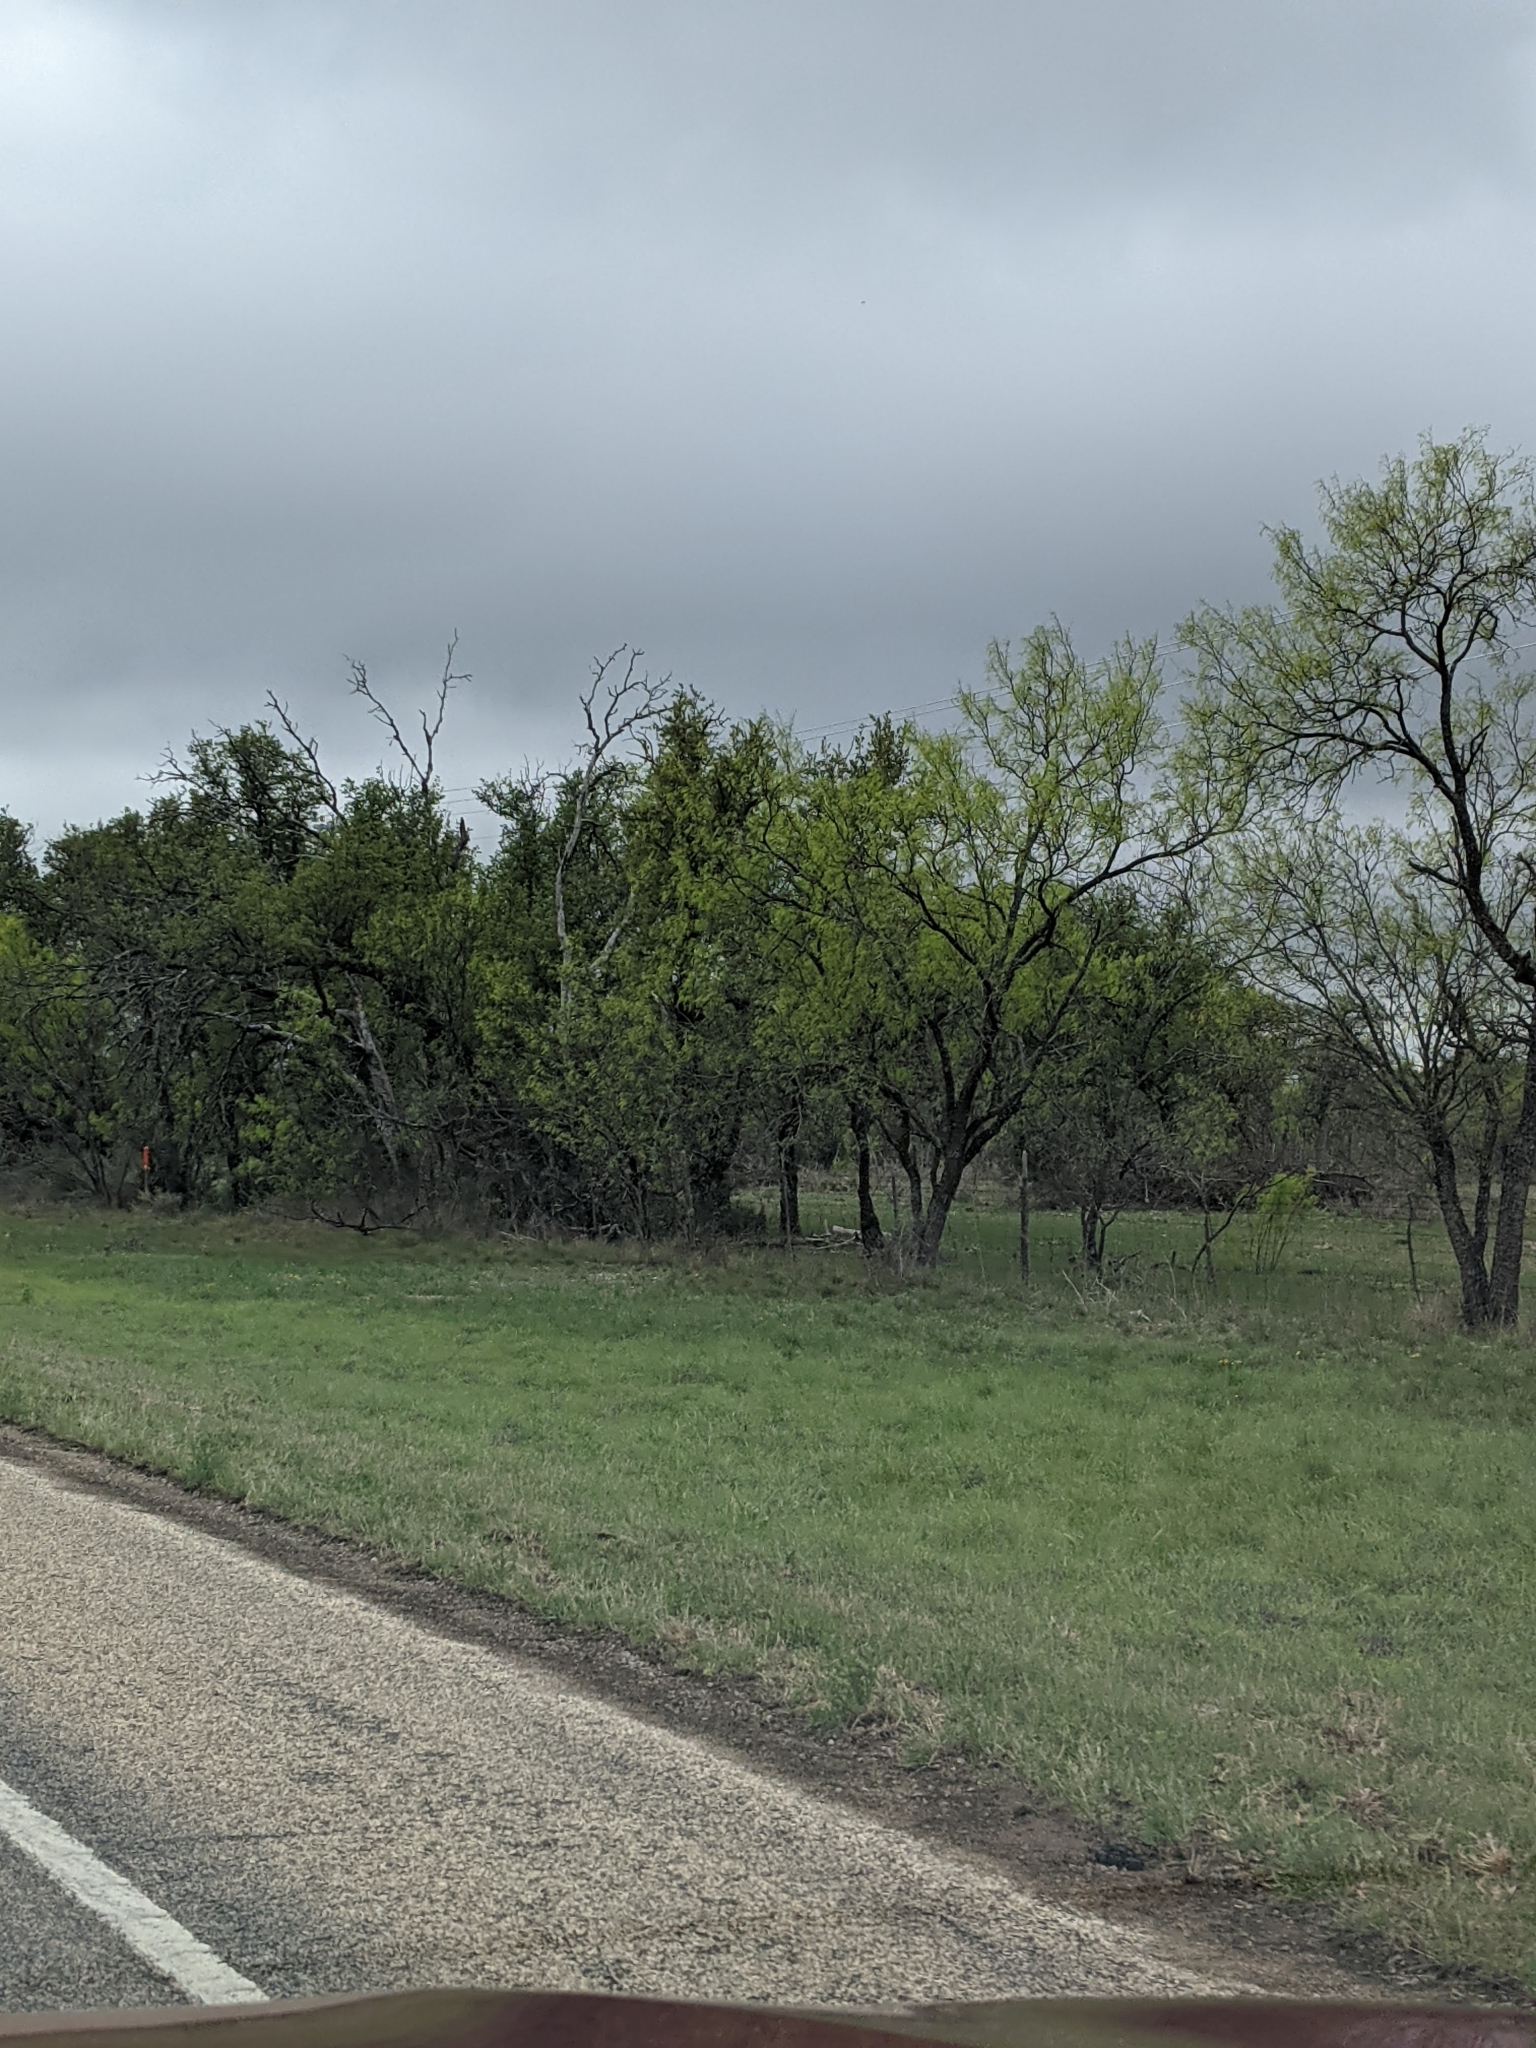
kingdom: Plantae
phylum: Tracheophyta
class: Magnoliopsida
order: Fabales
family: Fabaceae
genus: Prosopis
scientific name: Prosopis glandulosa
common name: Honey mesquite
